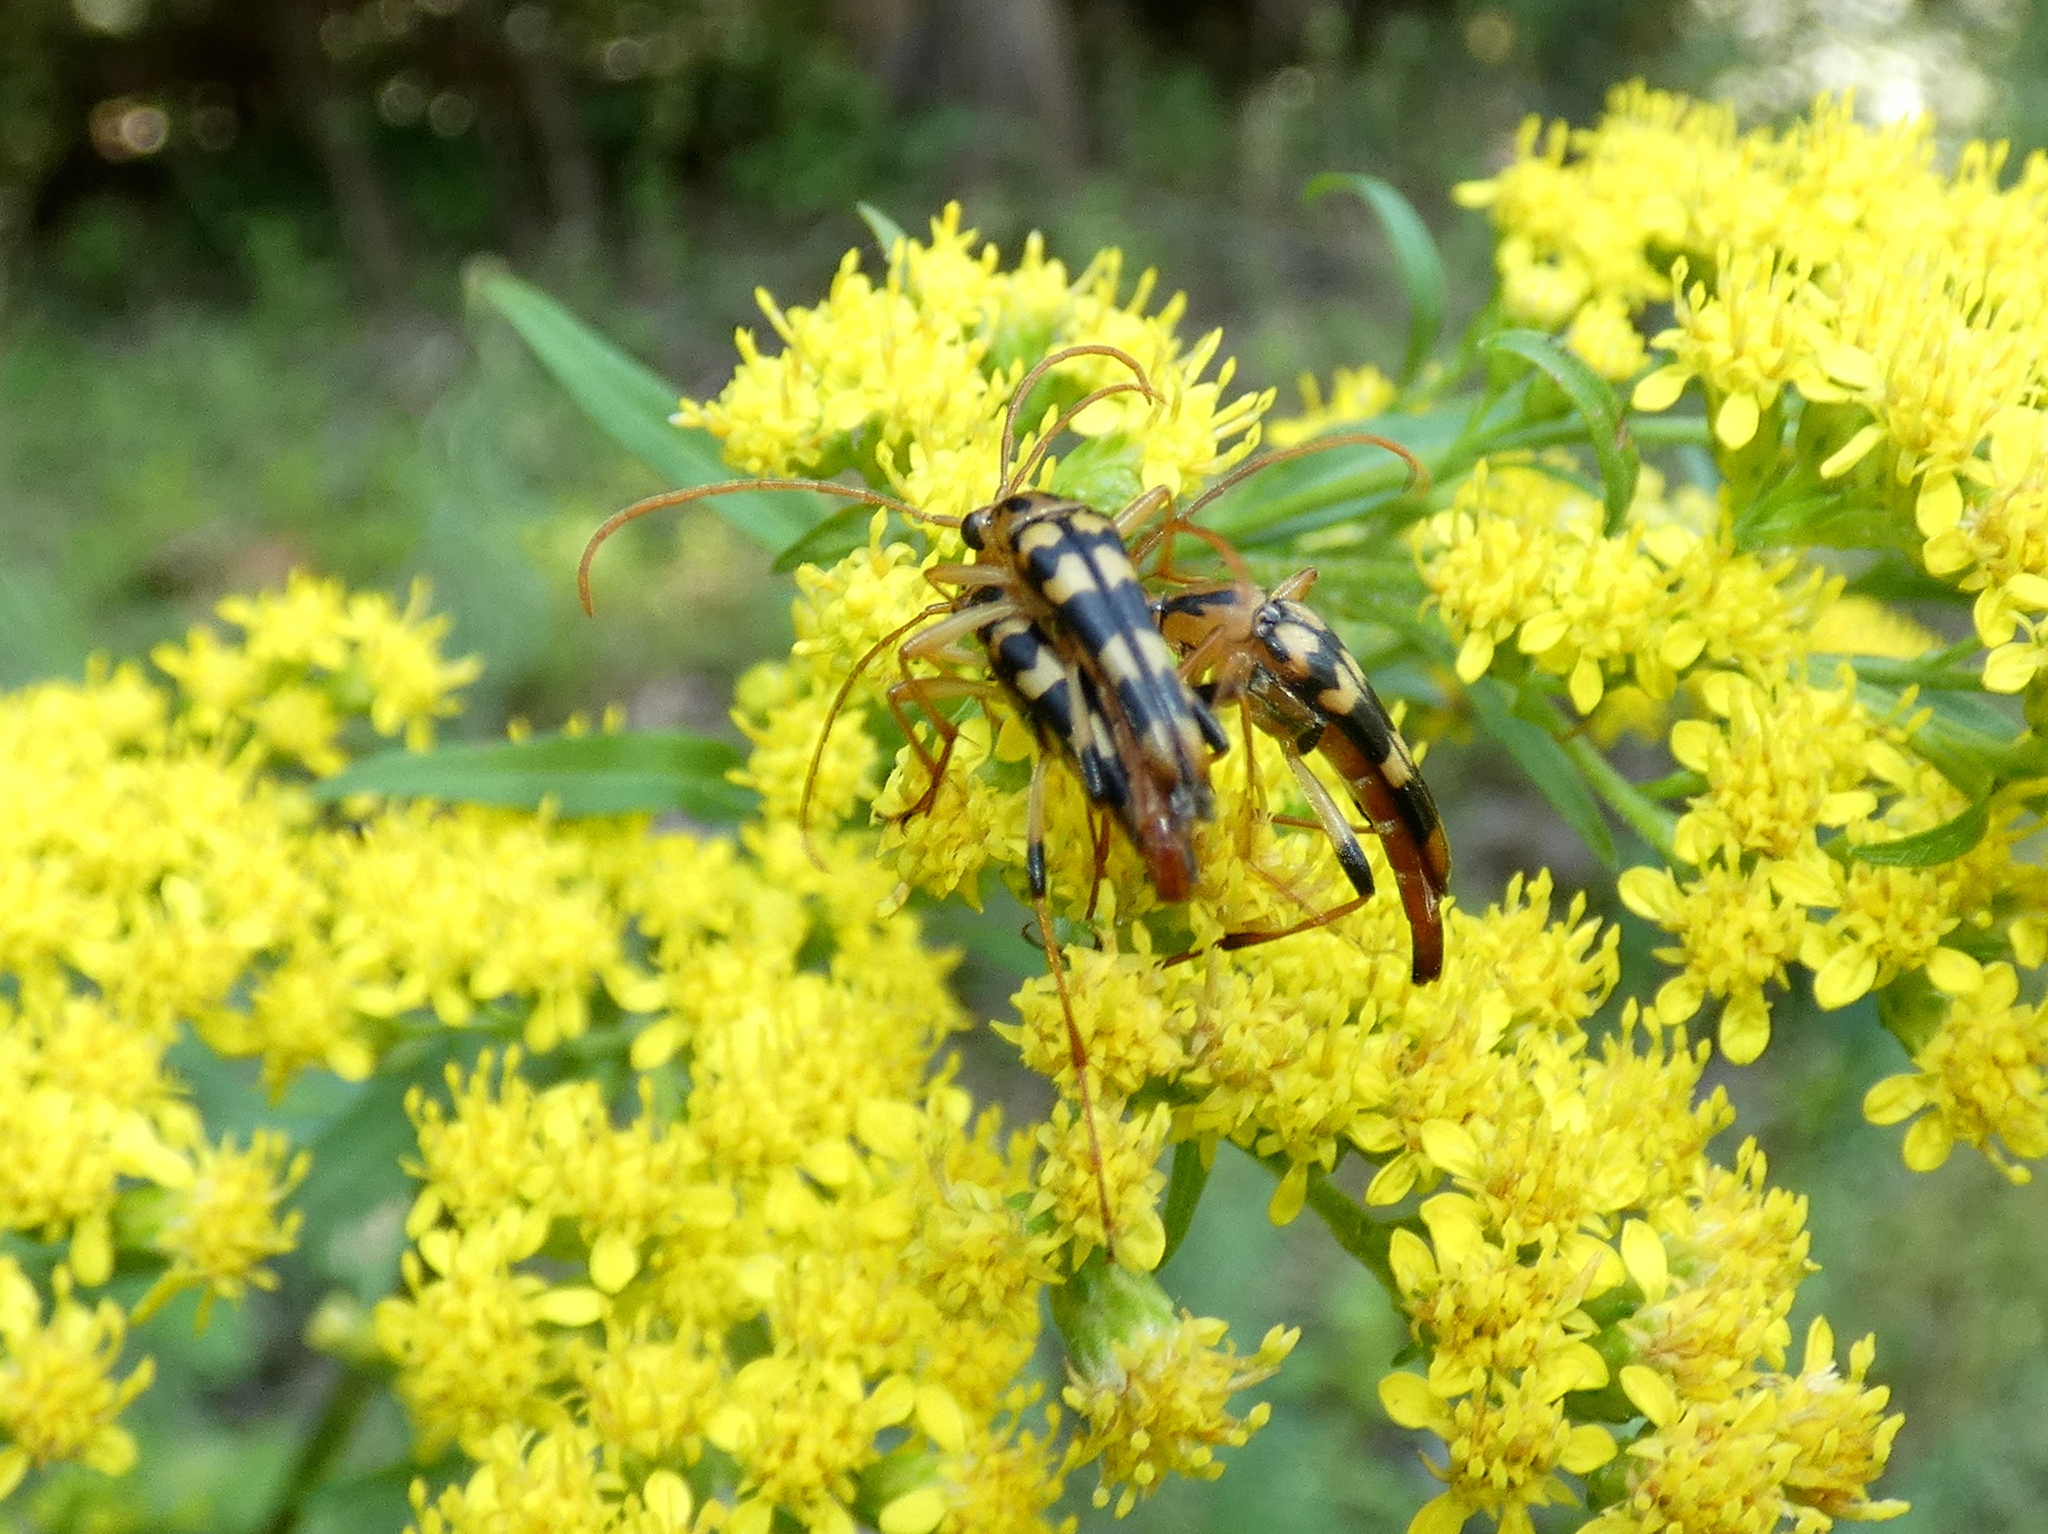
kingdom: Animalia
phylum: Arthropoda
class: Insecta
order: Coleoptera
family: Cerambycidae
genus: Strangalia
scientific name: Strangalia luteicornis
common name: Yellow-horned flower longhorn beetle
